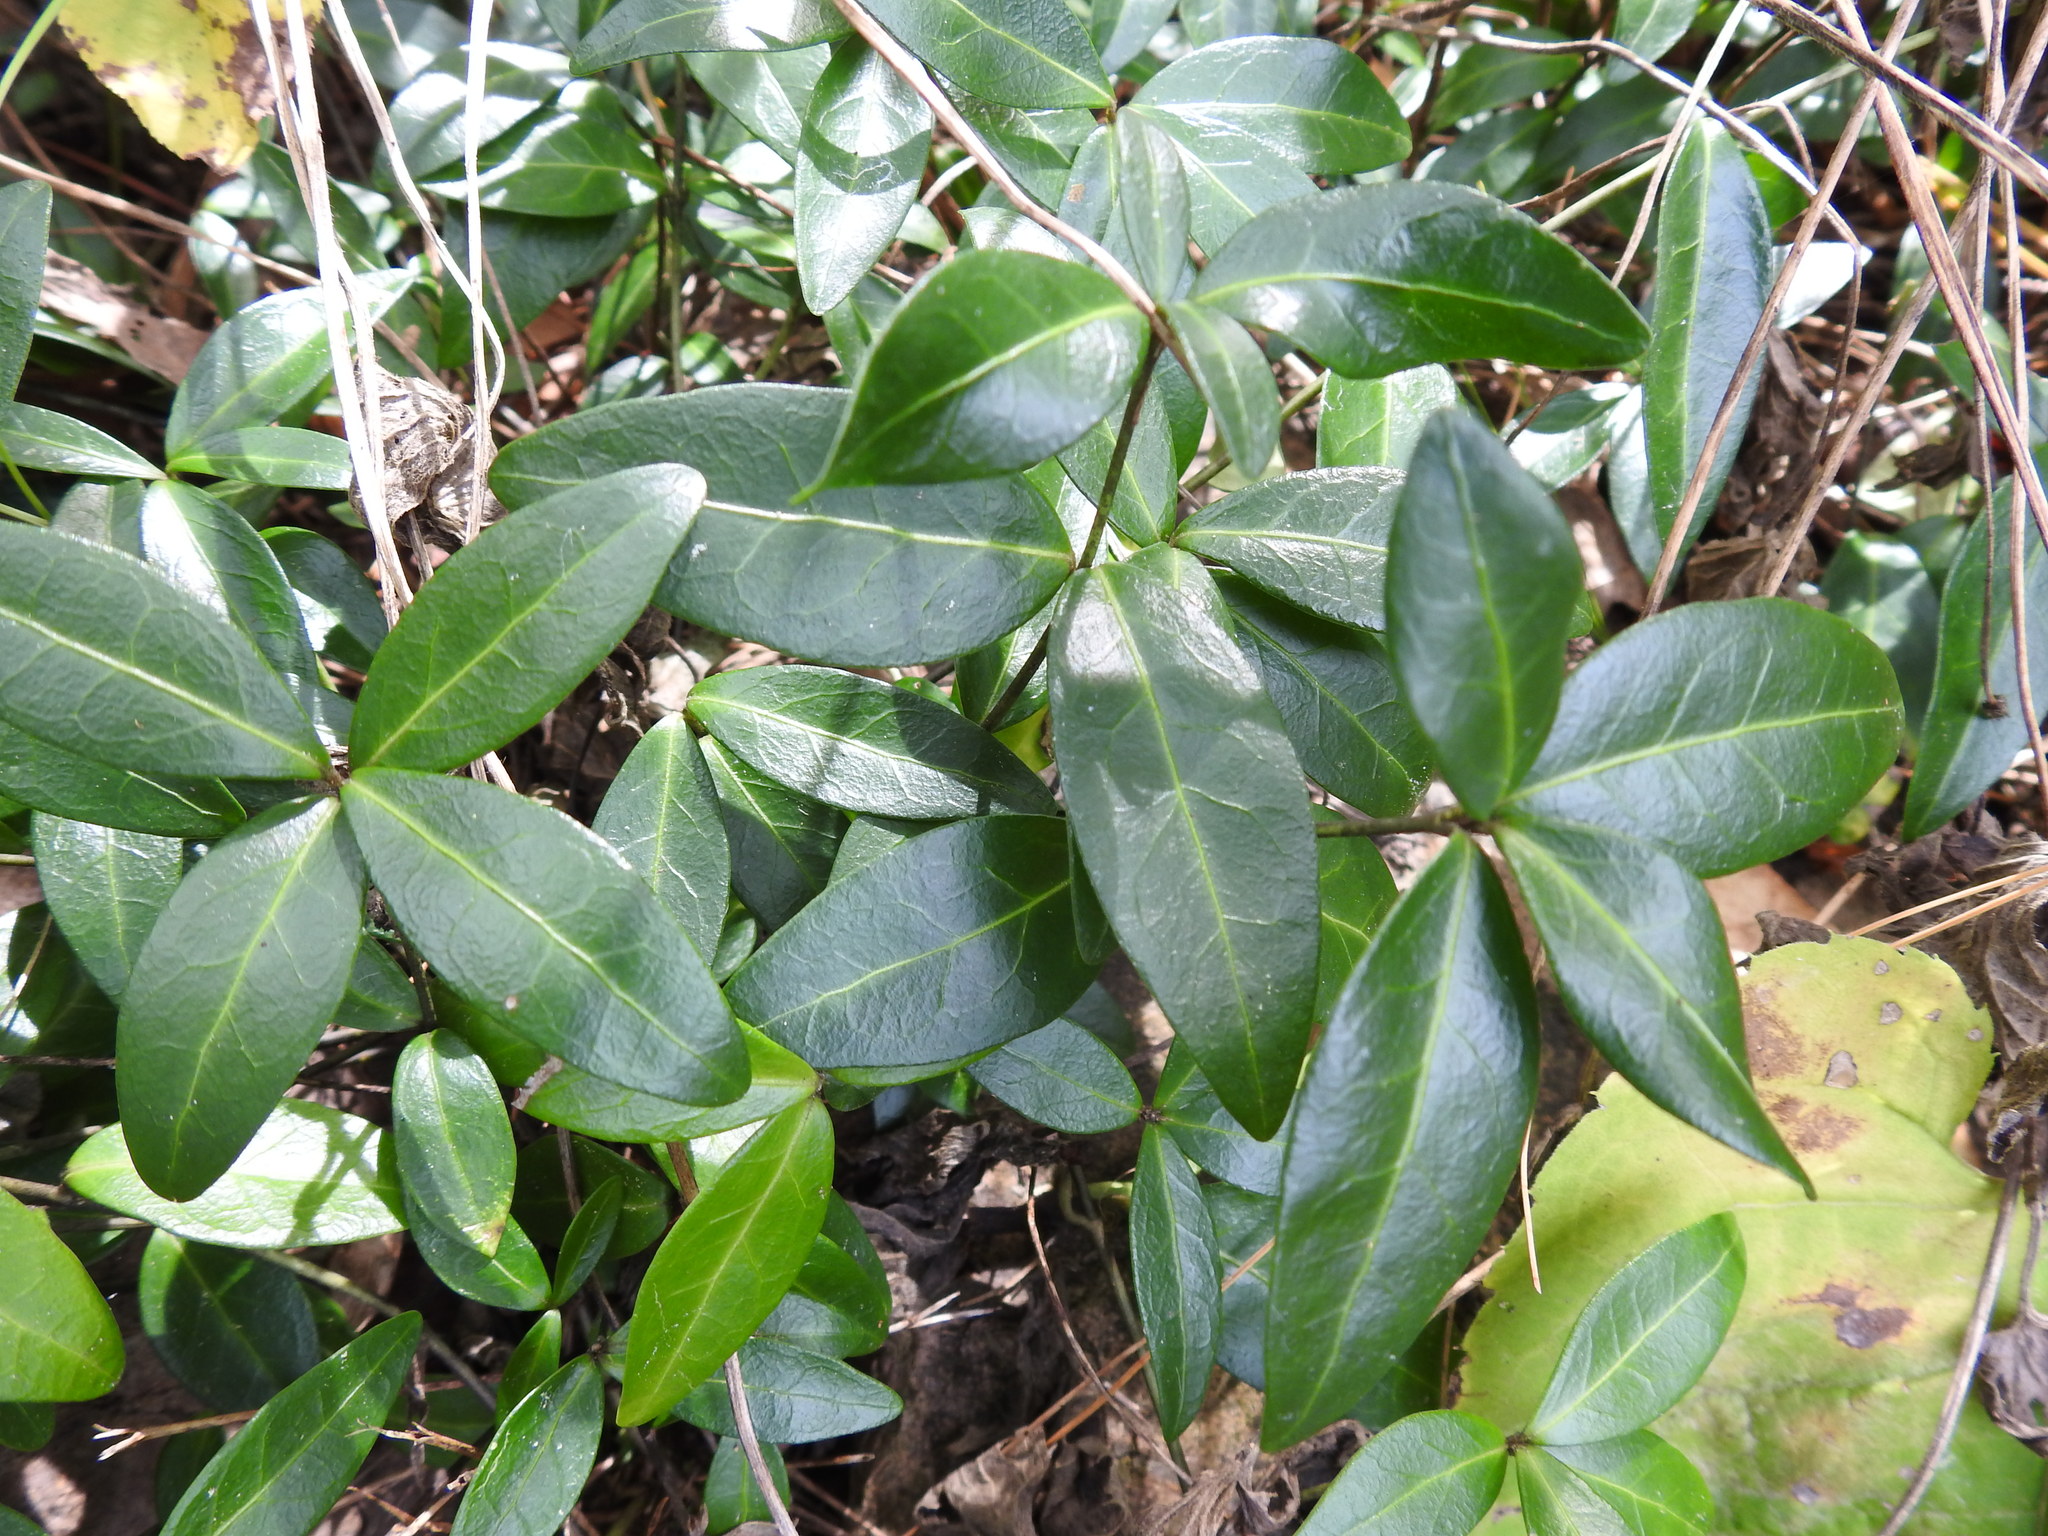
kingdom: Plantae
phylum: Tracheophyta
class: Magnoliopsida
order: Gentianales
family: Apocynaceae
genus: Vinca
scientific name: Vinca minor
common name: Lesser periwinkle
